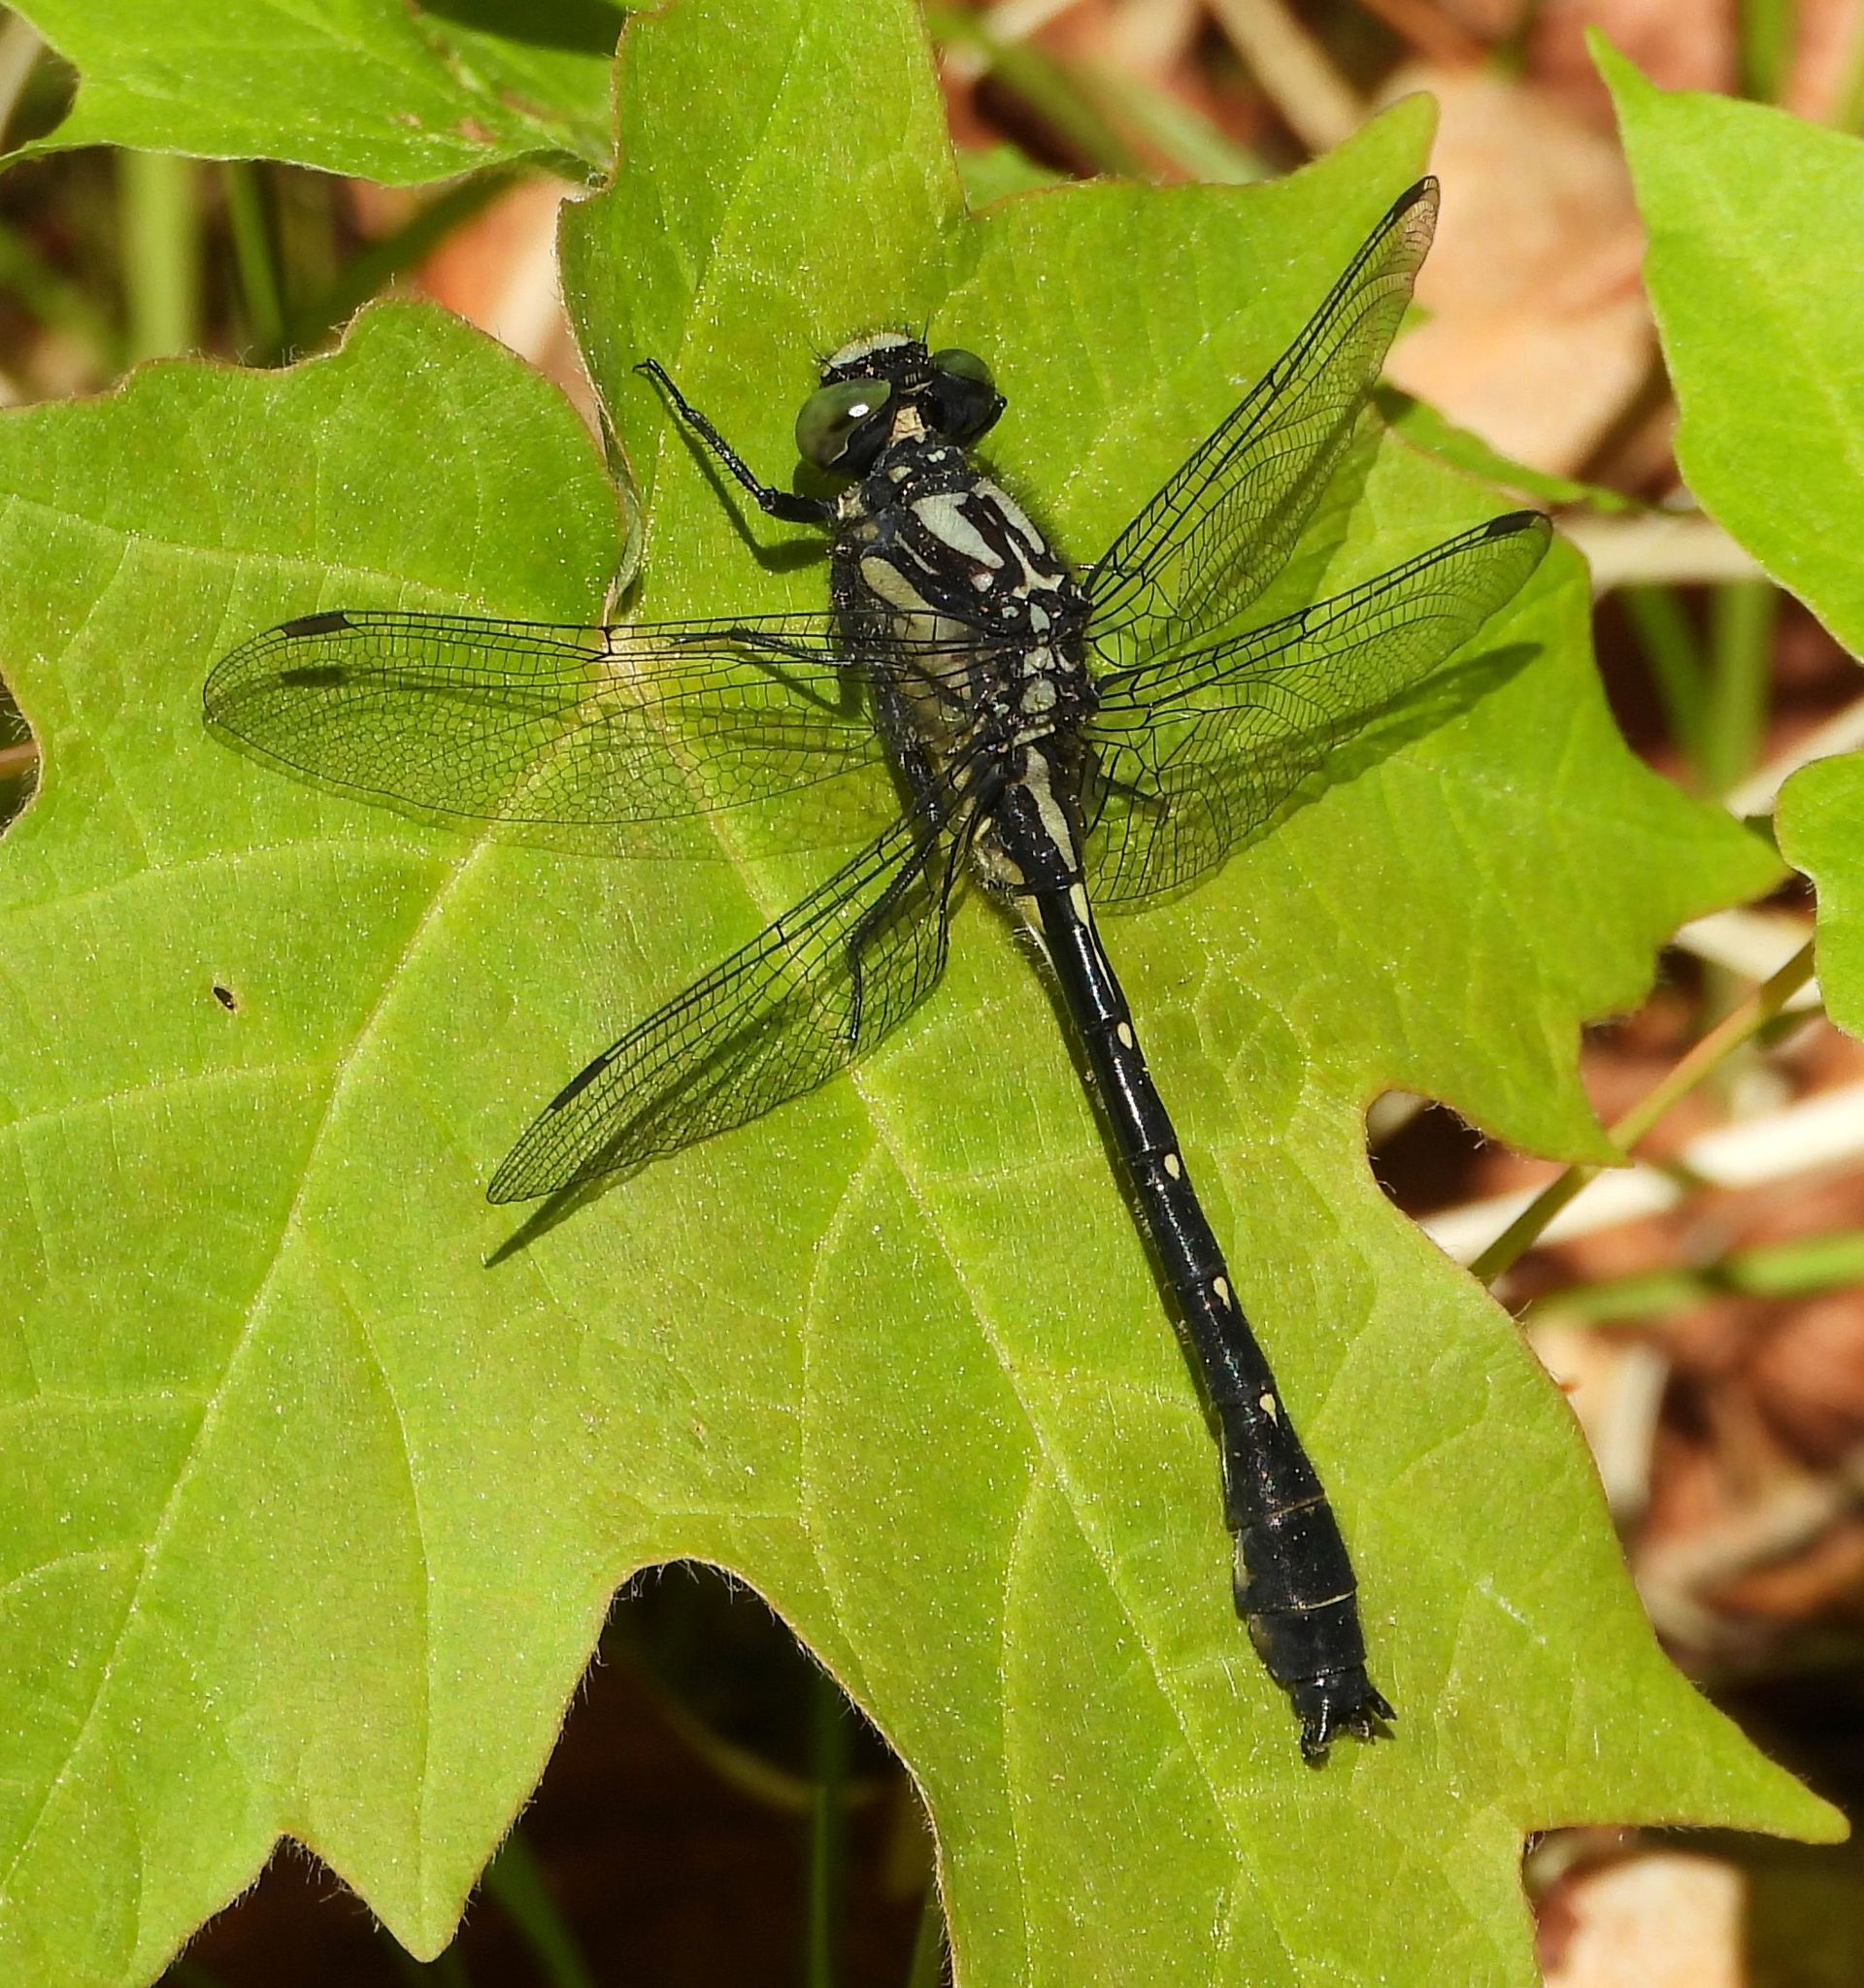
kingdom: Animalia
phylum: Arthropoda
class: Insecta
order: Odonata
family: Gomphidae
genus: Hylogomphus
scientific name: Hylogomphus adelphus
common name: Mustached clubtail
